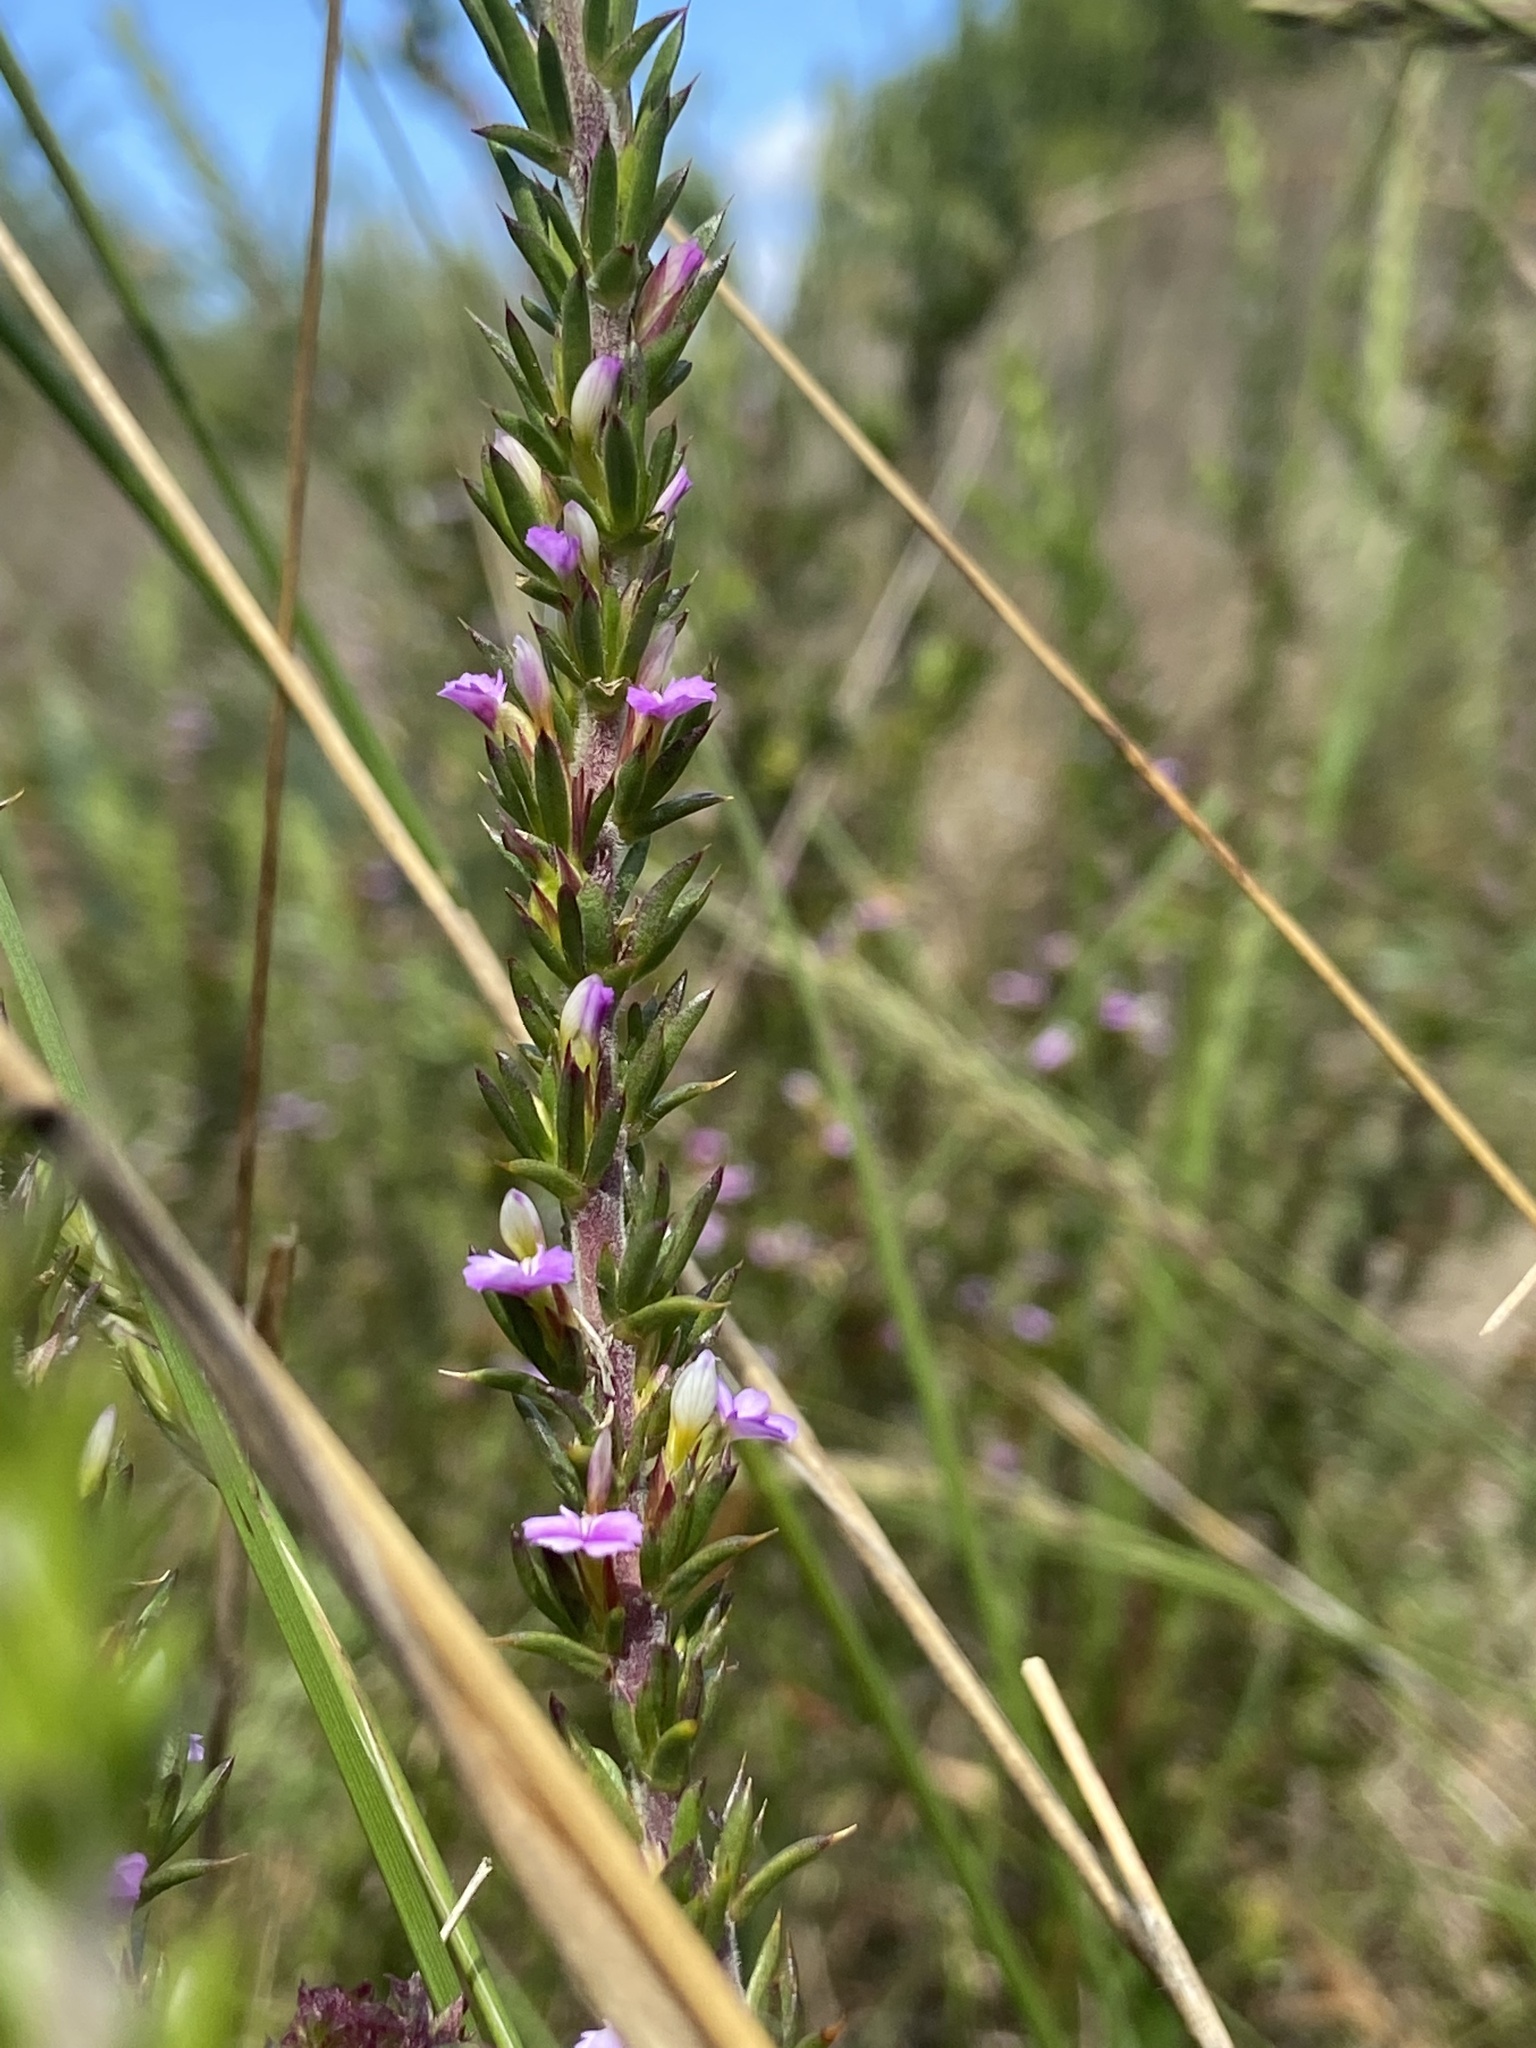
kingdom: Plantae
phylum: Tracheophyta
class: Magnoliopsida
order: Fabales
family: Polygalaceae
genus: Muraltia
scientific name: Muraltia heisteria
